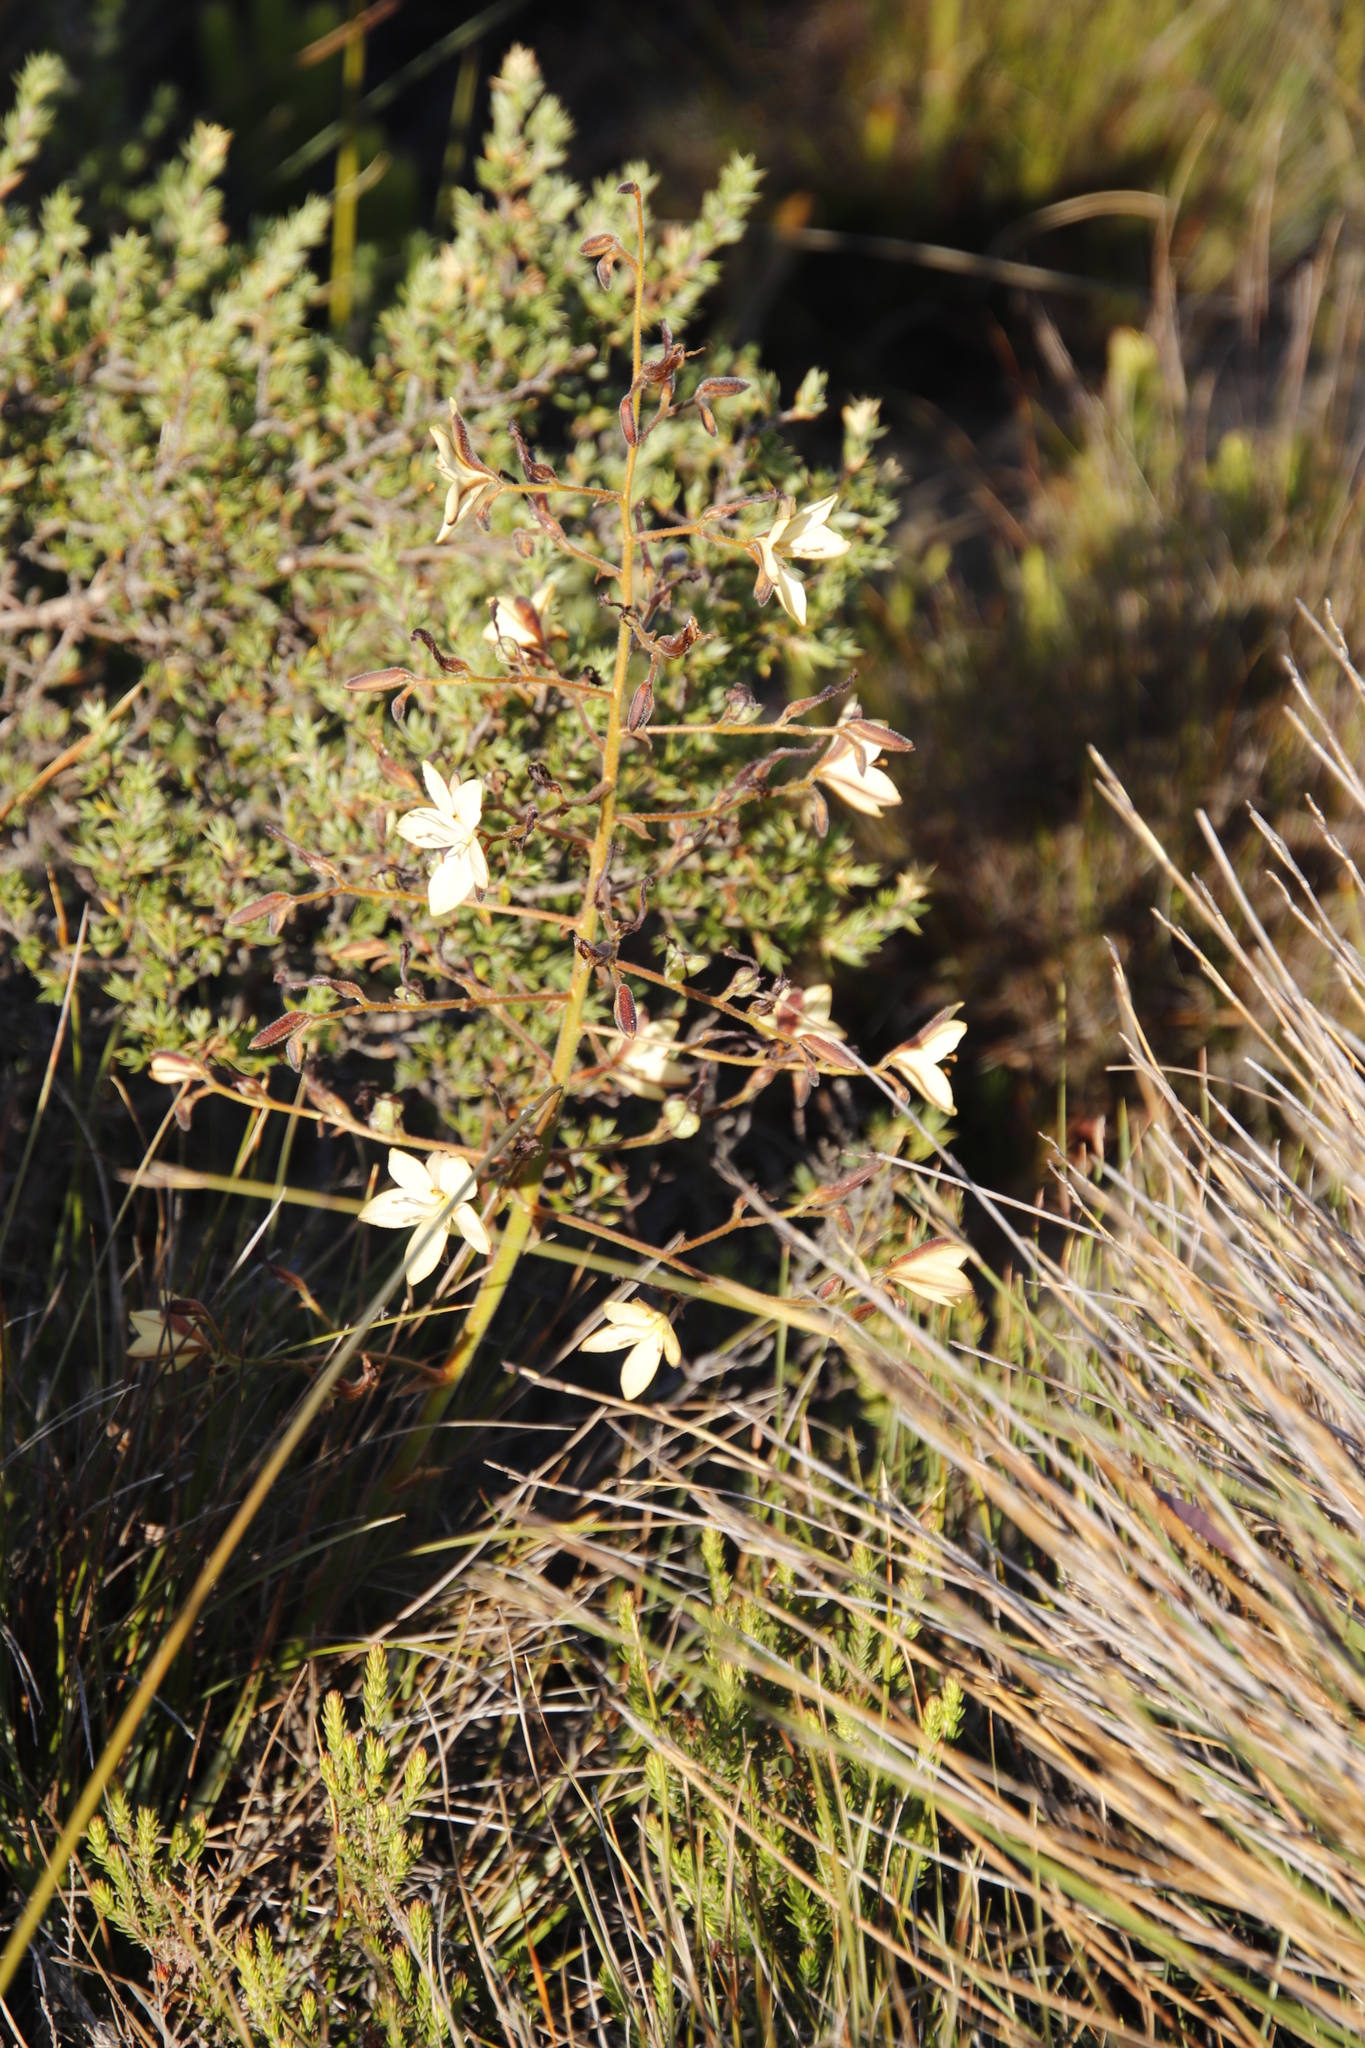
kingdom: Plantae
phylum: Tracheophyta
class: Liliopsida
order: Commelinales
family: Haemodoraceae
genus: Wachendorfia
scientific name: Wachendorfia paniculata
